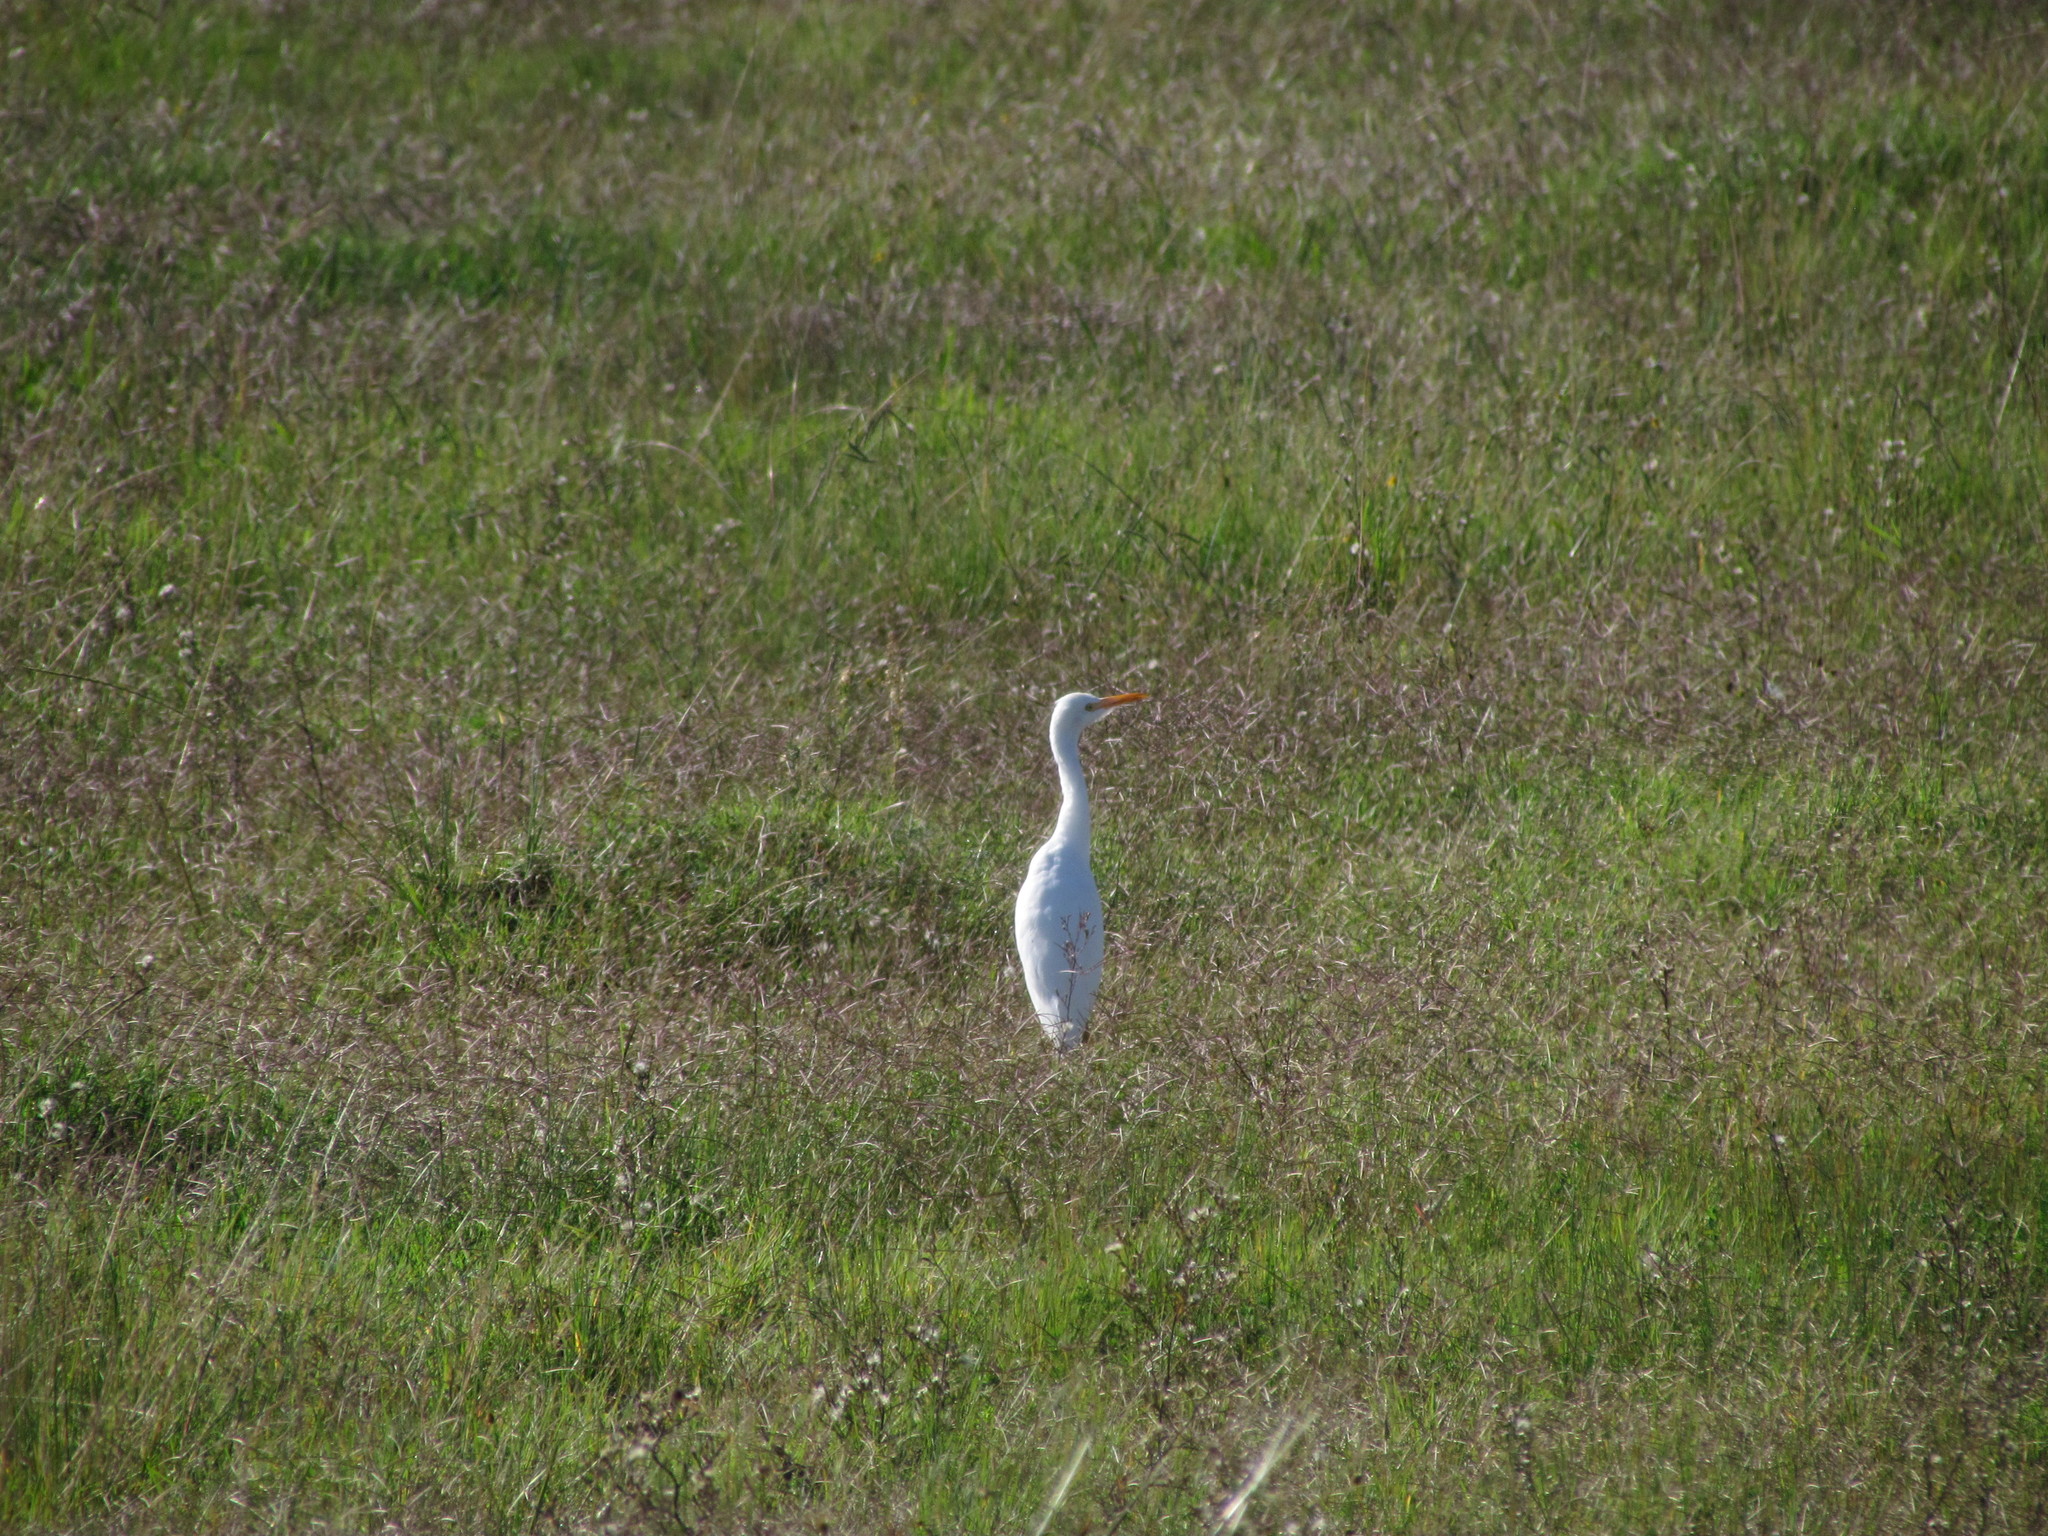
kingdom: Animalia
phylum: Chordata
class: Aves
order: Pelecaniformes
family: Ardeidae
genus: Bubulcus
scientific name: Bubulcus ibis
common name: Cattle egret
